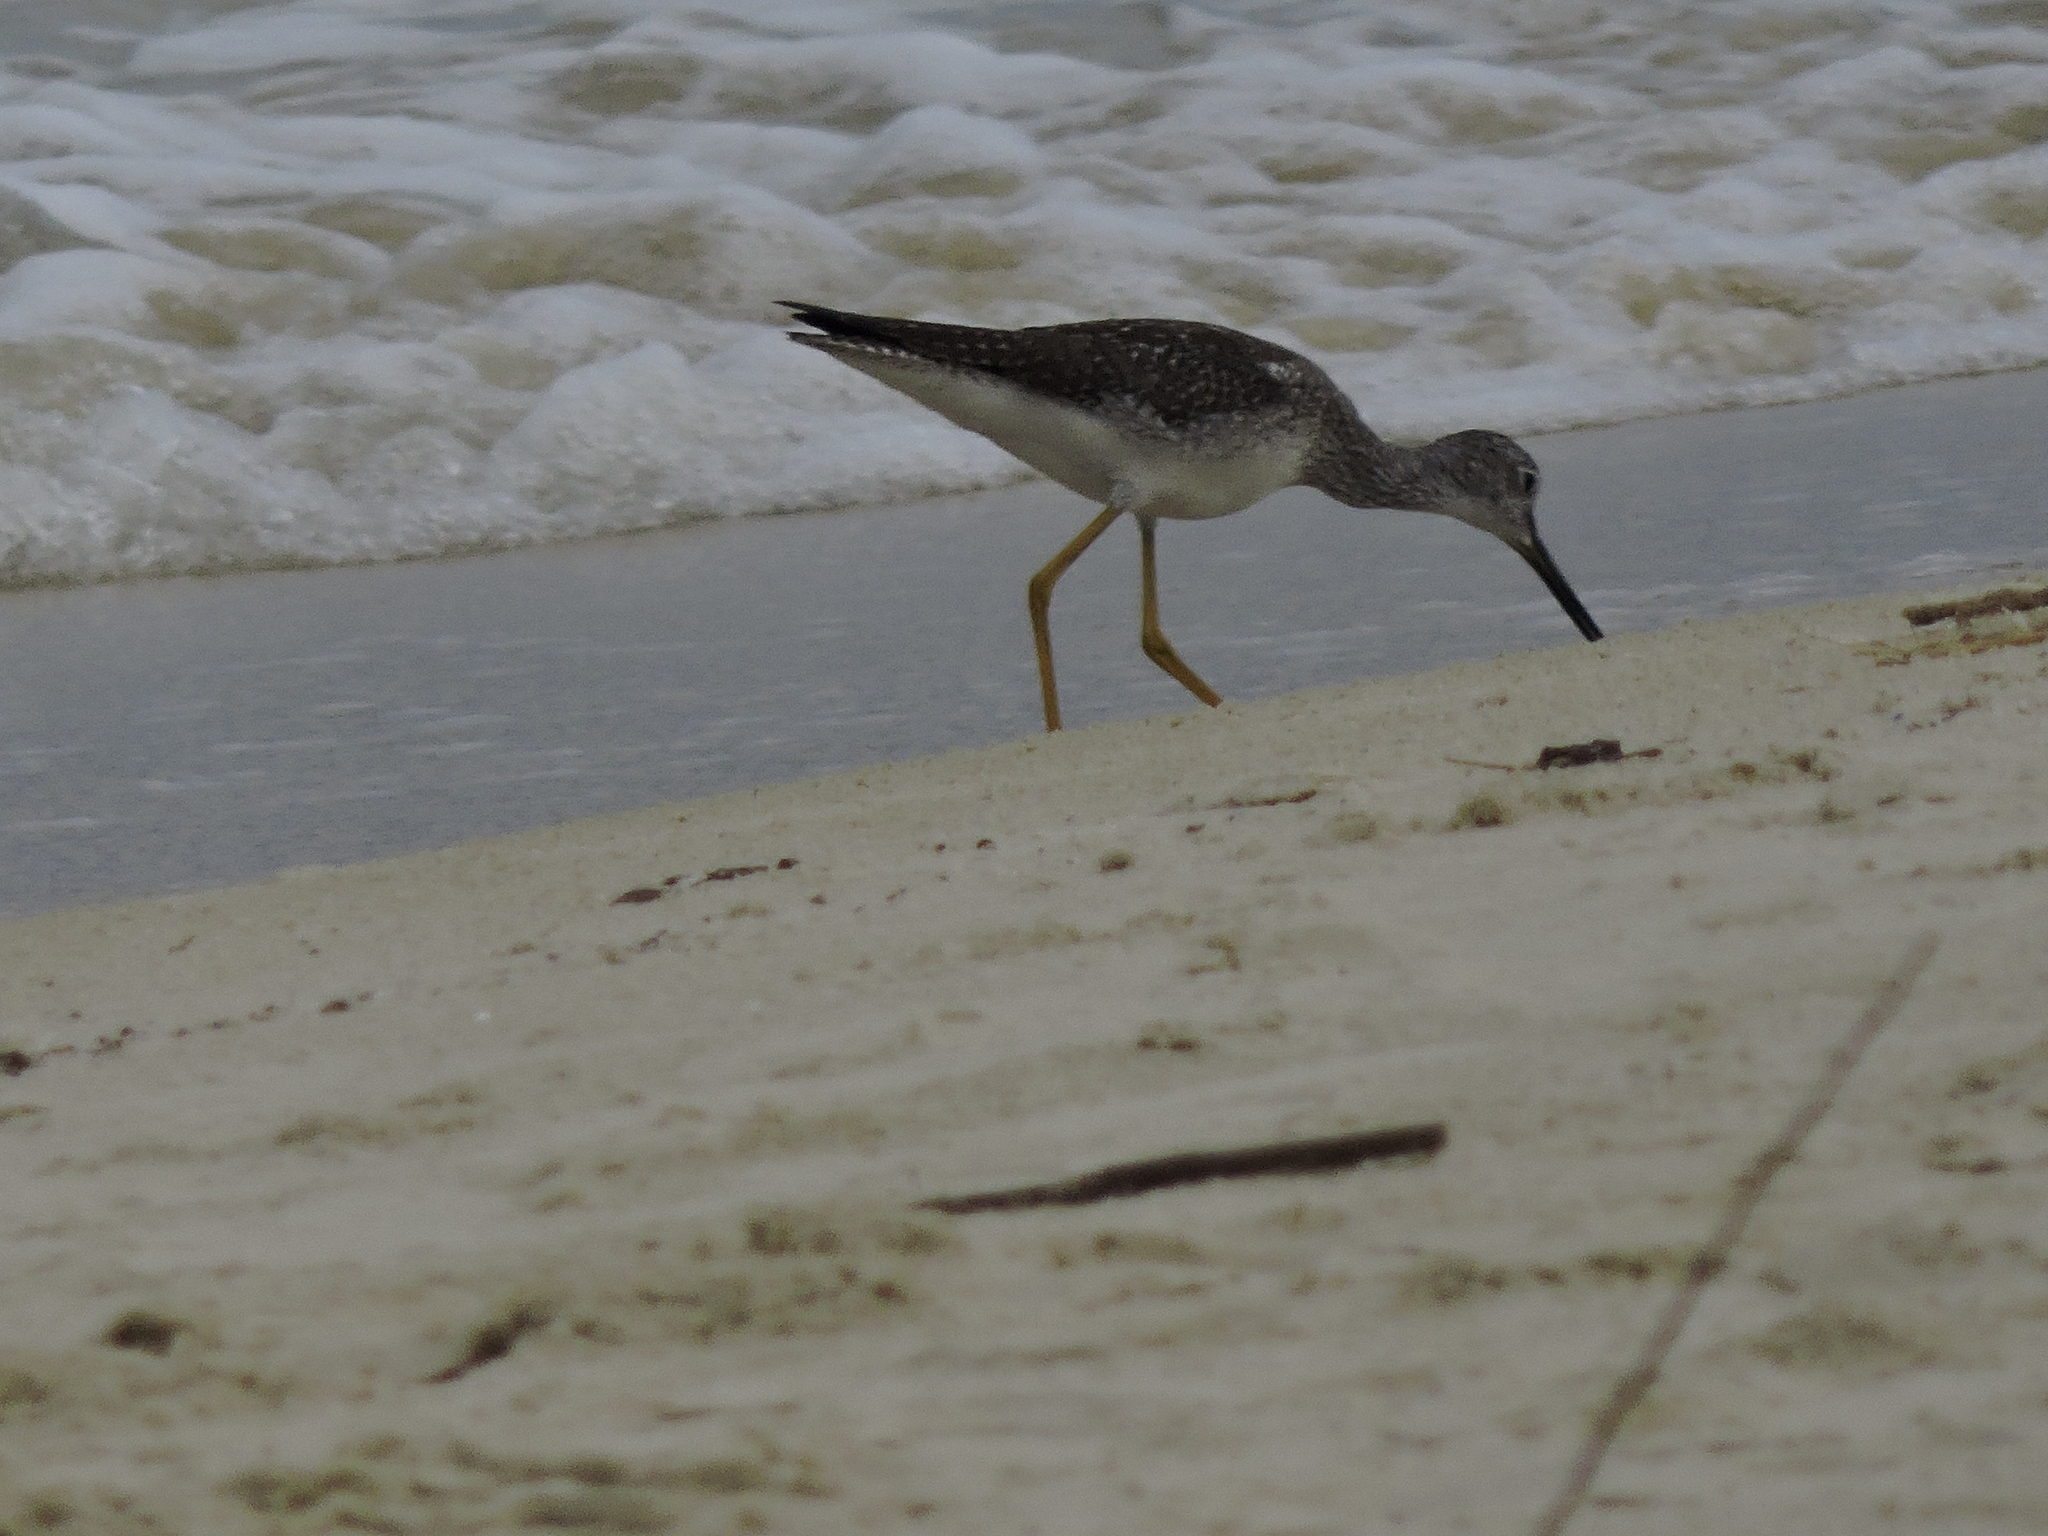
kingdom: Animalia
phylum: Chordata
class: Aves
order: Charadriiformes
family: Scolopacidae
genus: Tringa
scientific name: Tringa melanoleuca
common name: Greater yellowlegs
